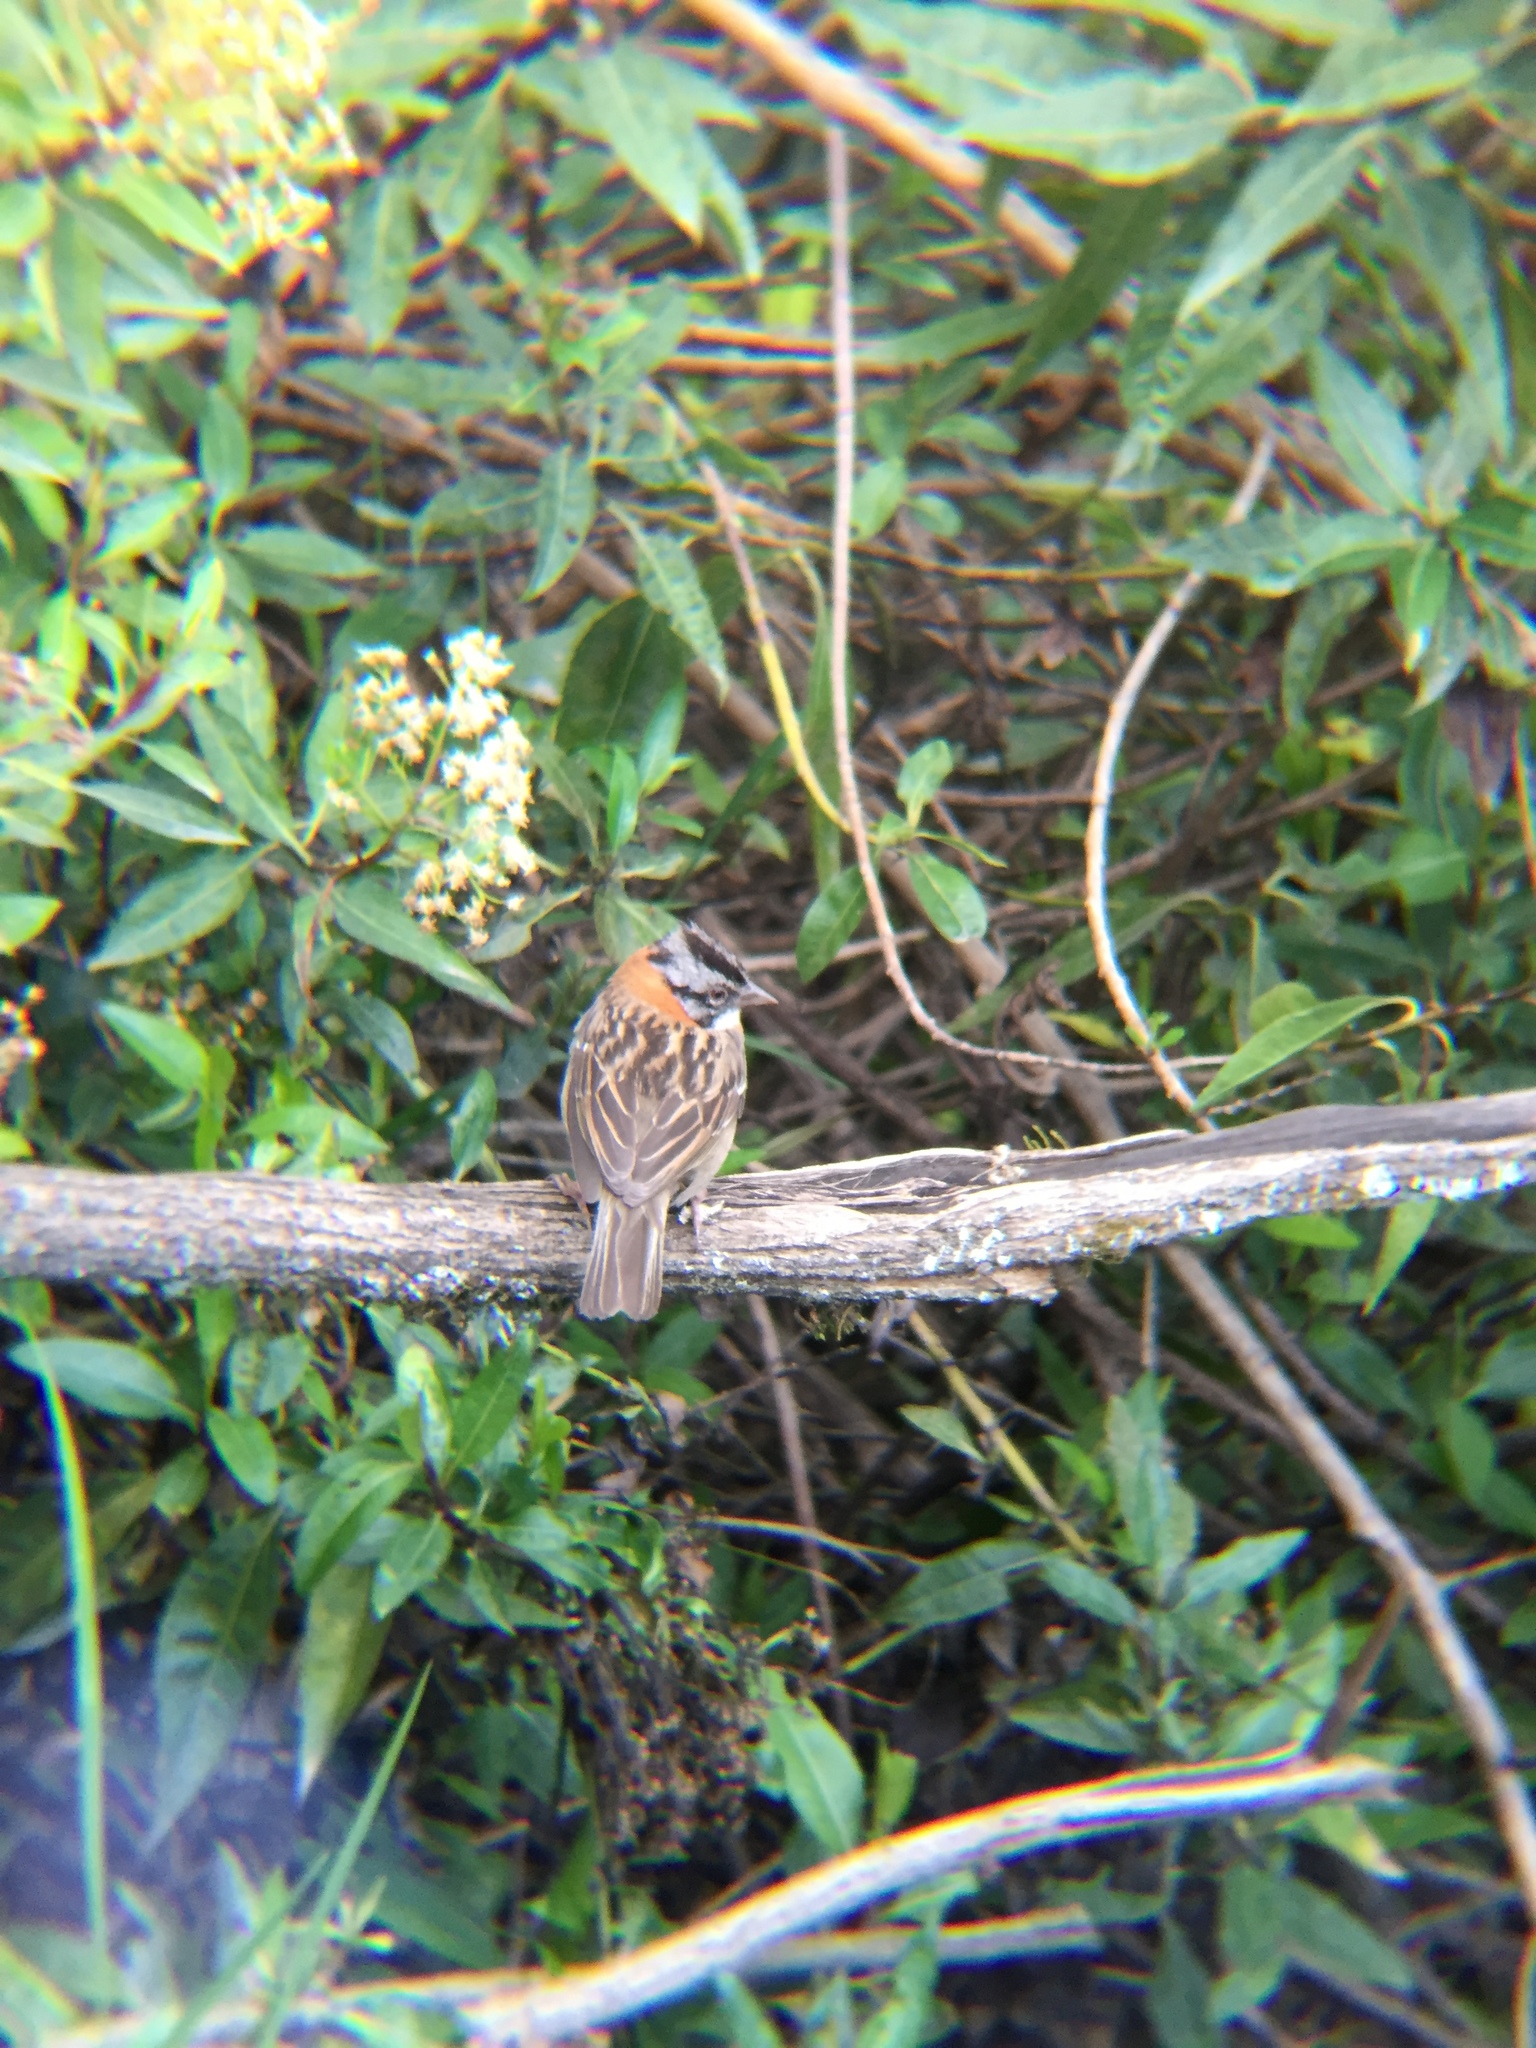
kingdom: Animalia
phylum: Chordata
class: Aves
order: Passeriformes
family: Passerellidae
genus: Zonotrichia
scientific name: Zonotrichia capensis
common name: Rufous-collared sparrow
